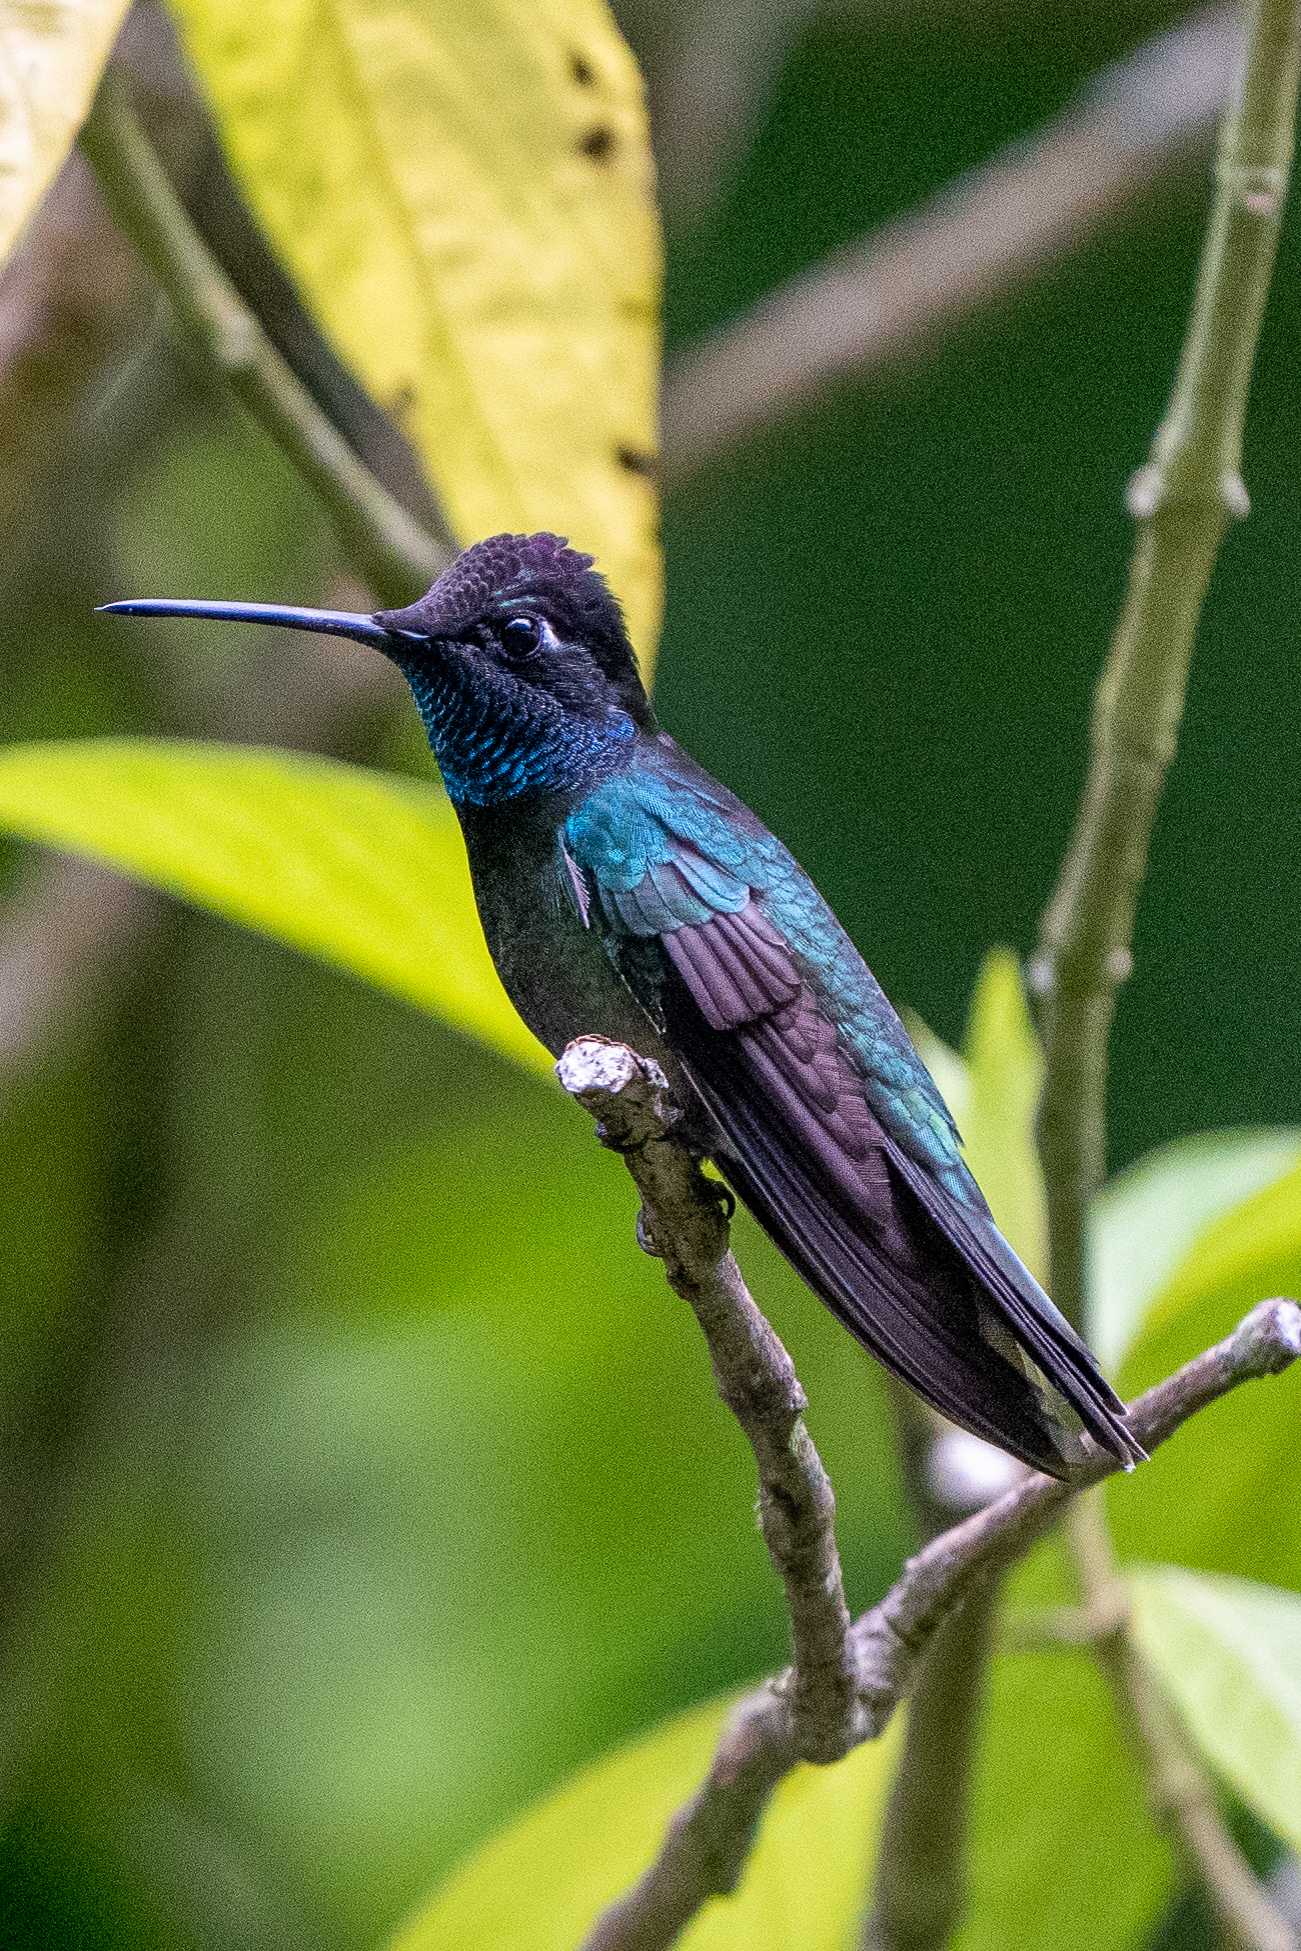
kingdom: Animalia
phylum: Chordata
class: Aves
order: Apodiformes
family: Trochilidae
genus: Eugenes
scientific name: Eugenes fulgens
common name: Magnificent hummingbird
